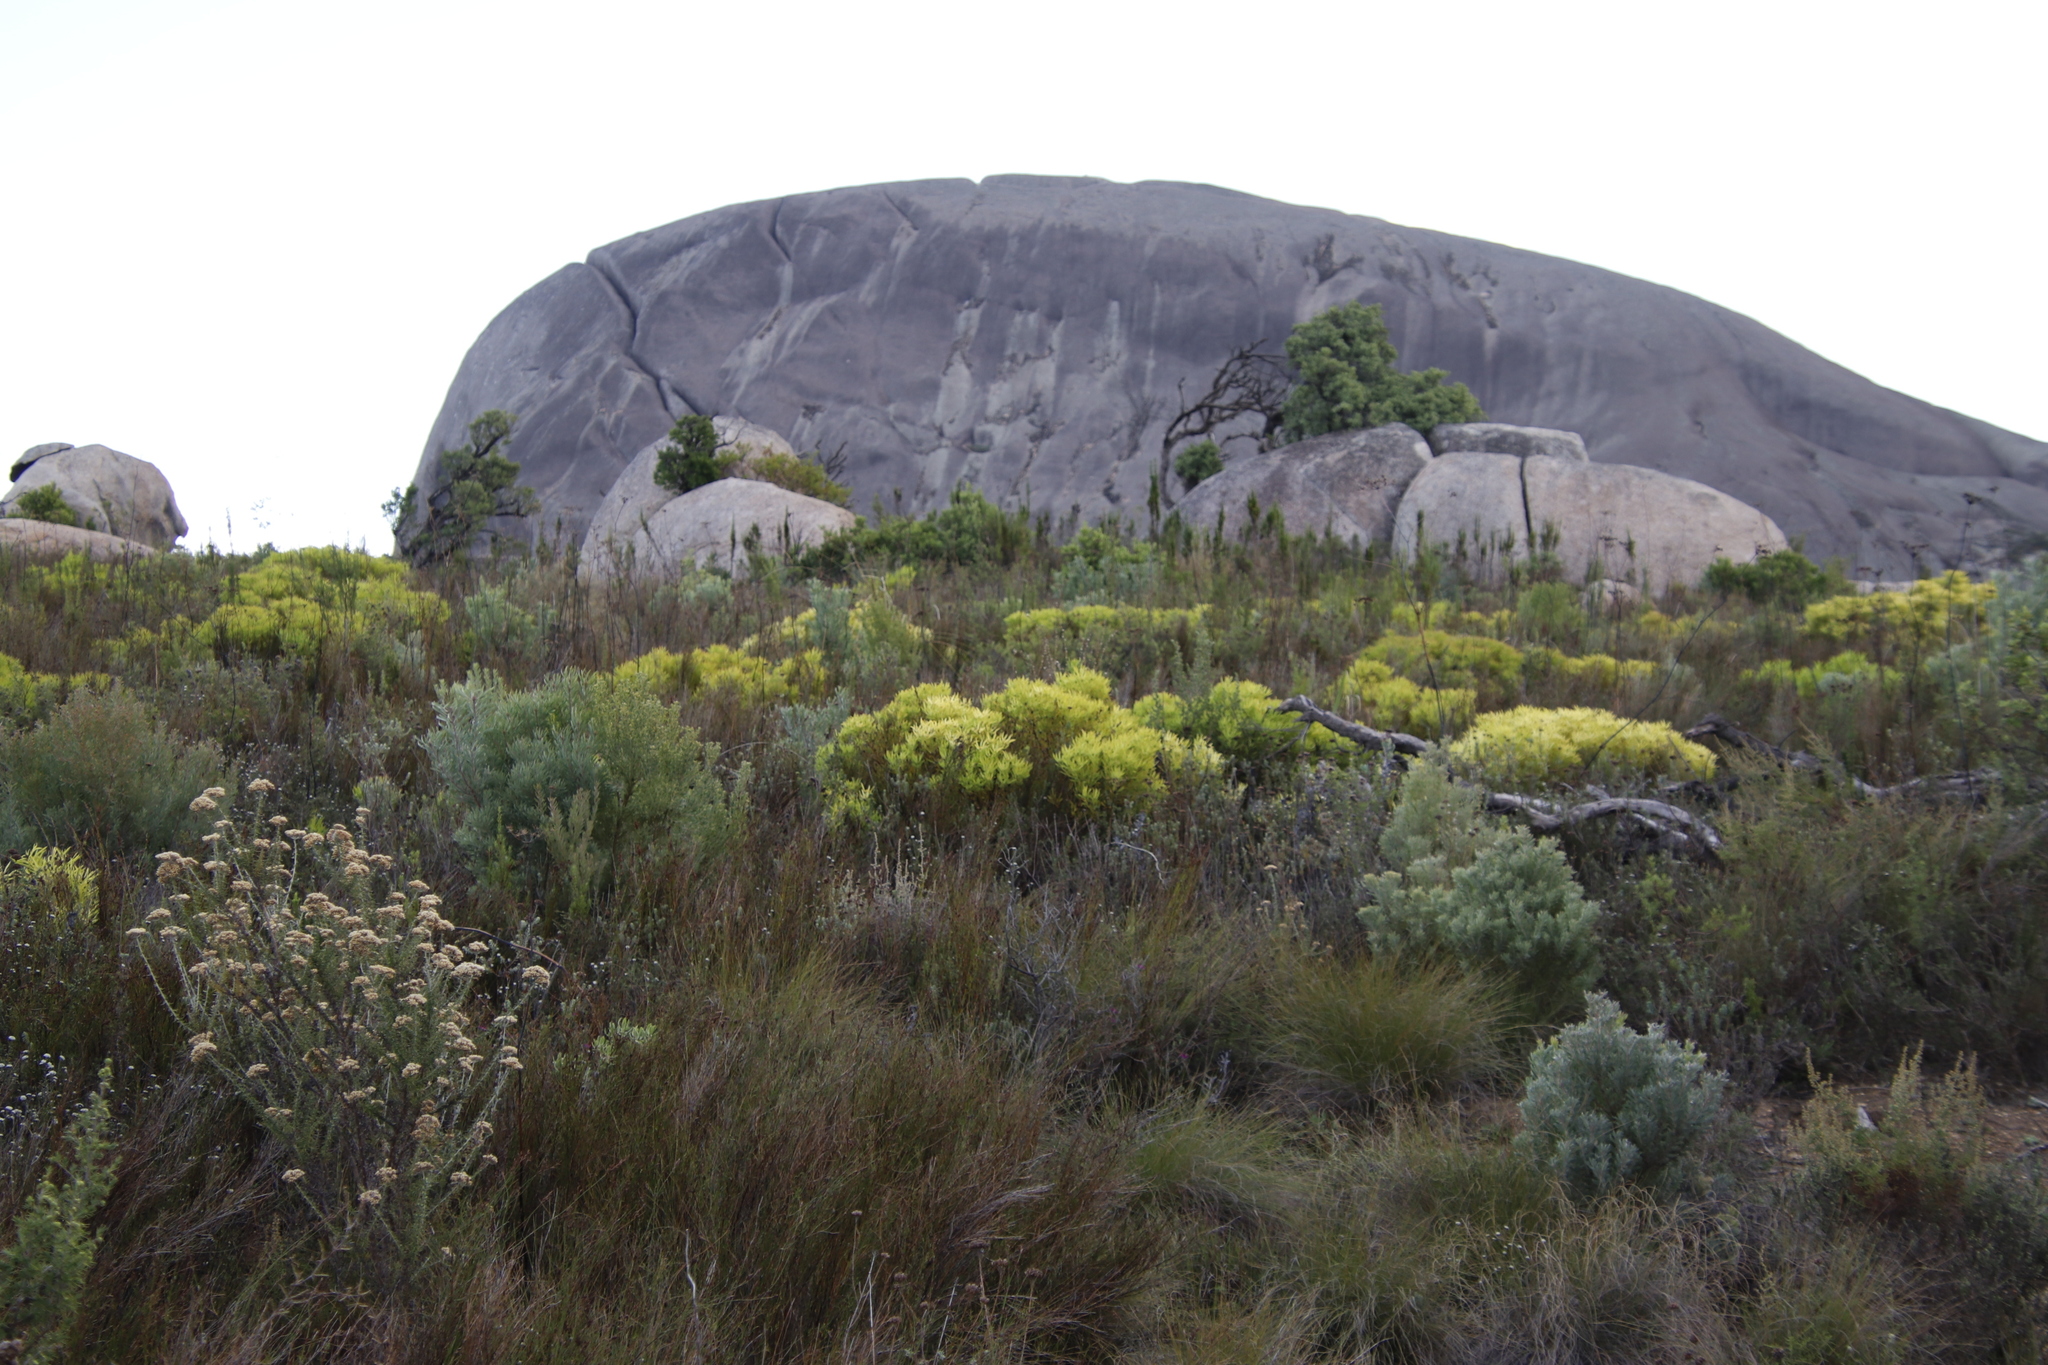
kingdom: Plantae
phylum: Tracheophyta
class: Magnoliopsida
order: Proteales
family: Proteaceae
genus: Leucadendron
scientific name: Leucadendron salignum
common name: Common sunshine conebush
